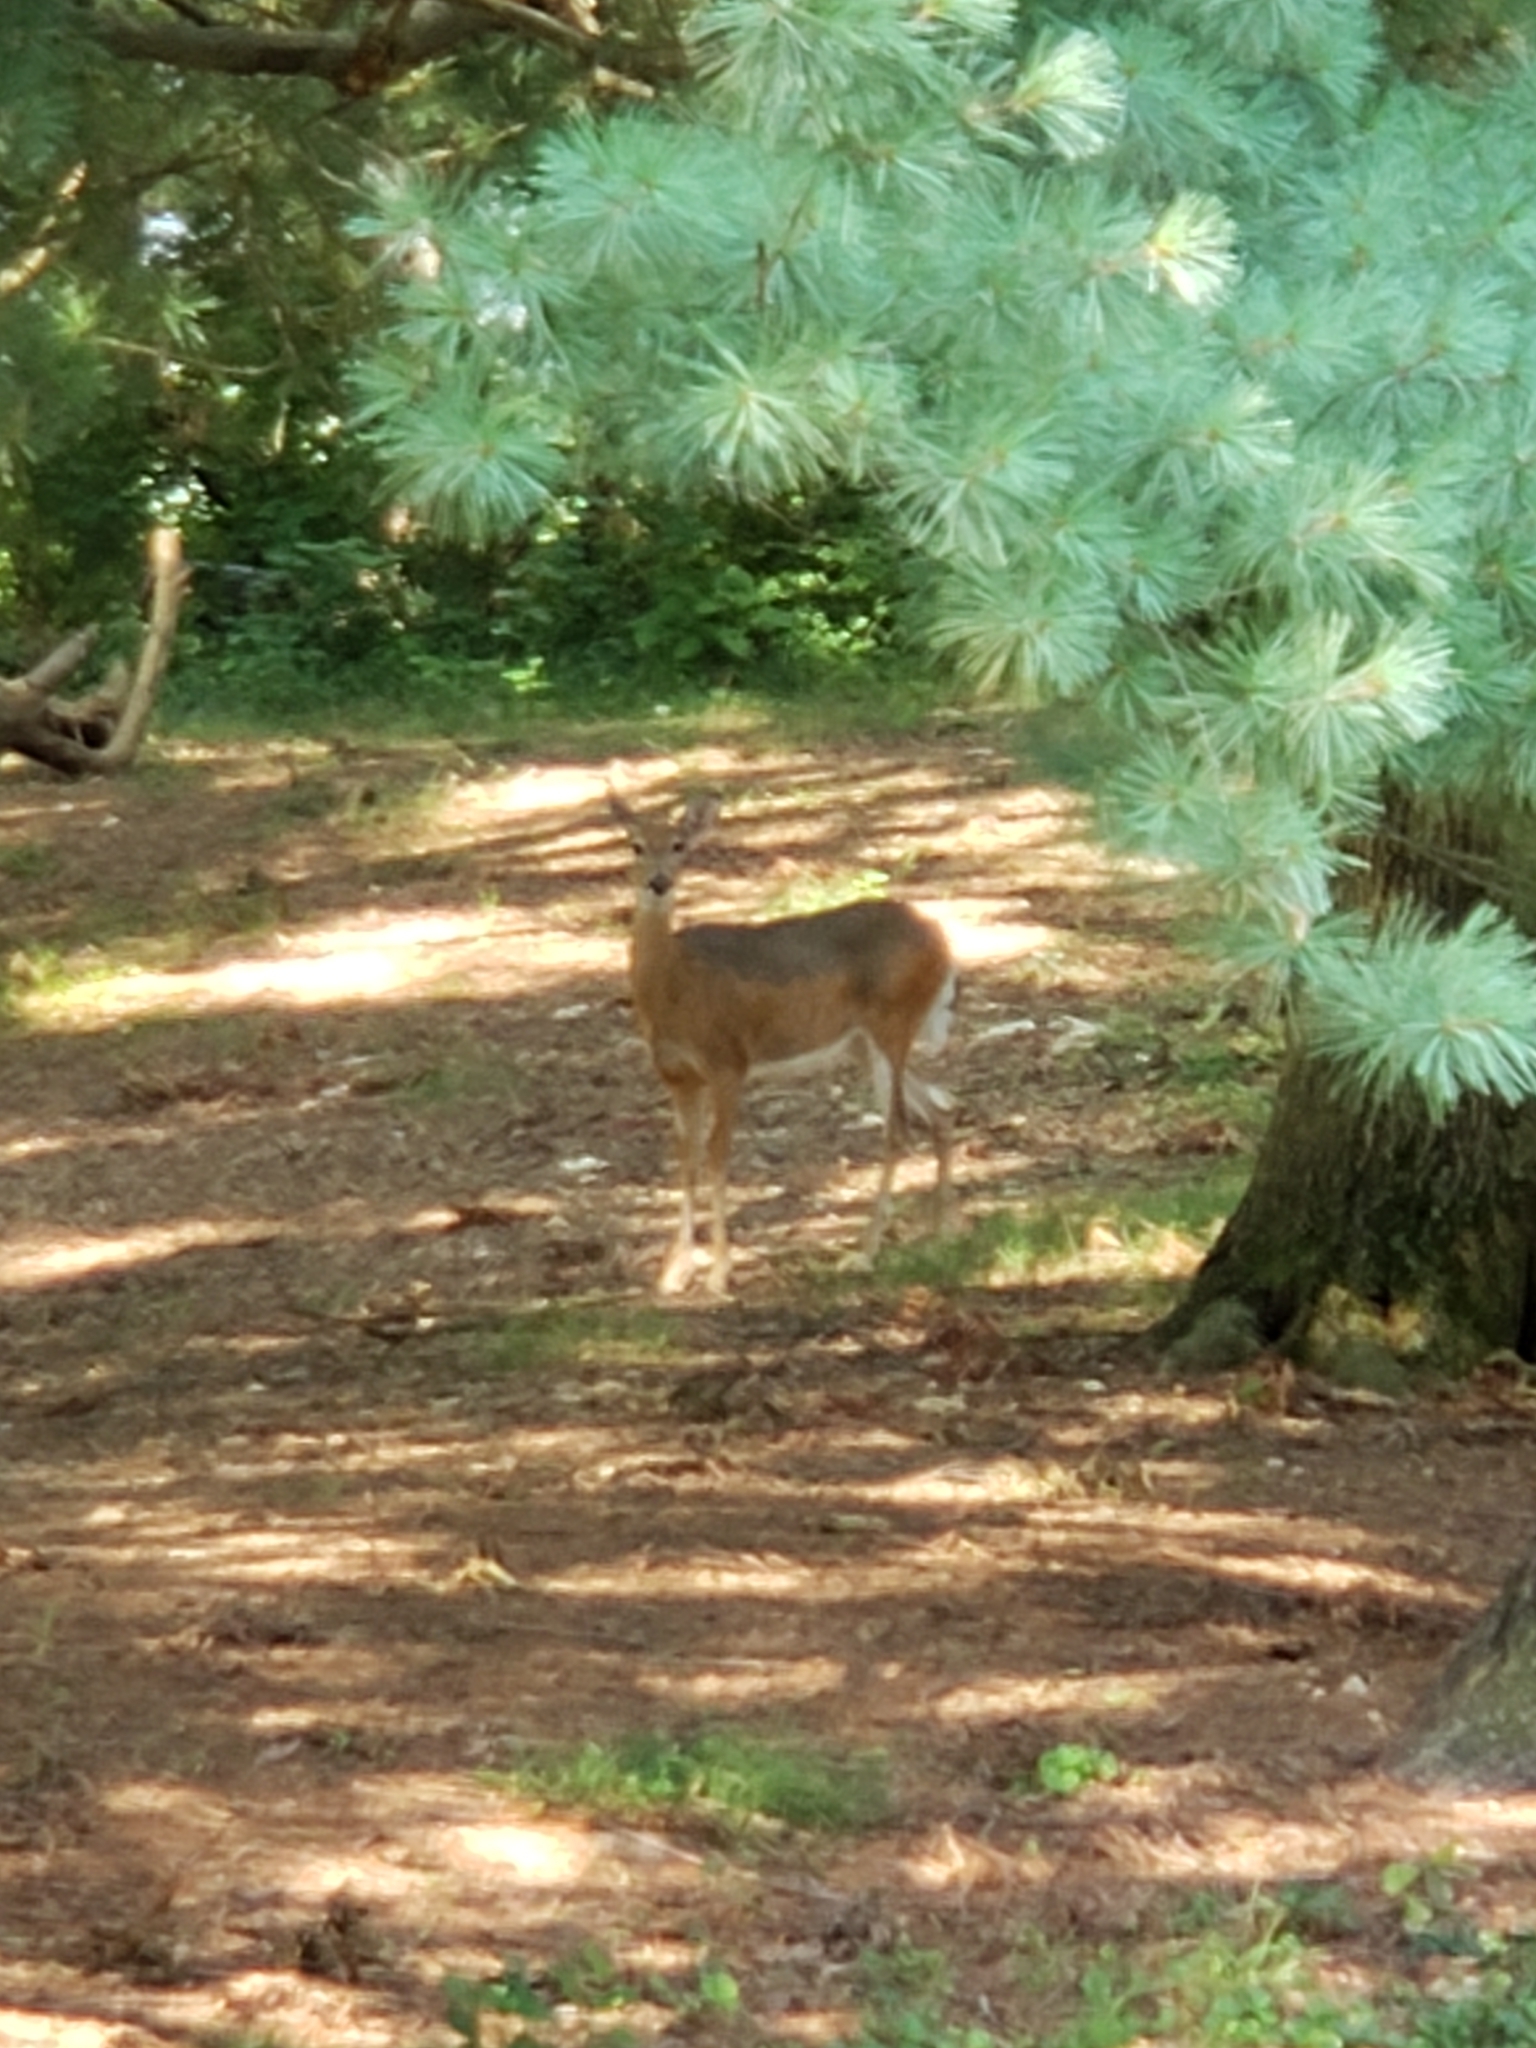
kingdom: Animalia
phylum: Chordata
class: Mammalia
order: Artiodactyla
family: Cervidae
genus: Odocoileus
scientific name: Odocoileus virginianus
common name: White-tailed deer
